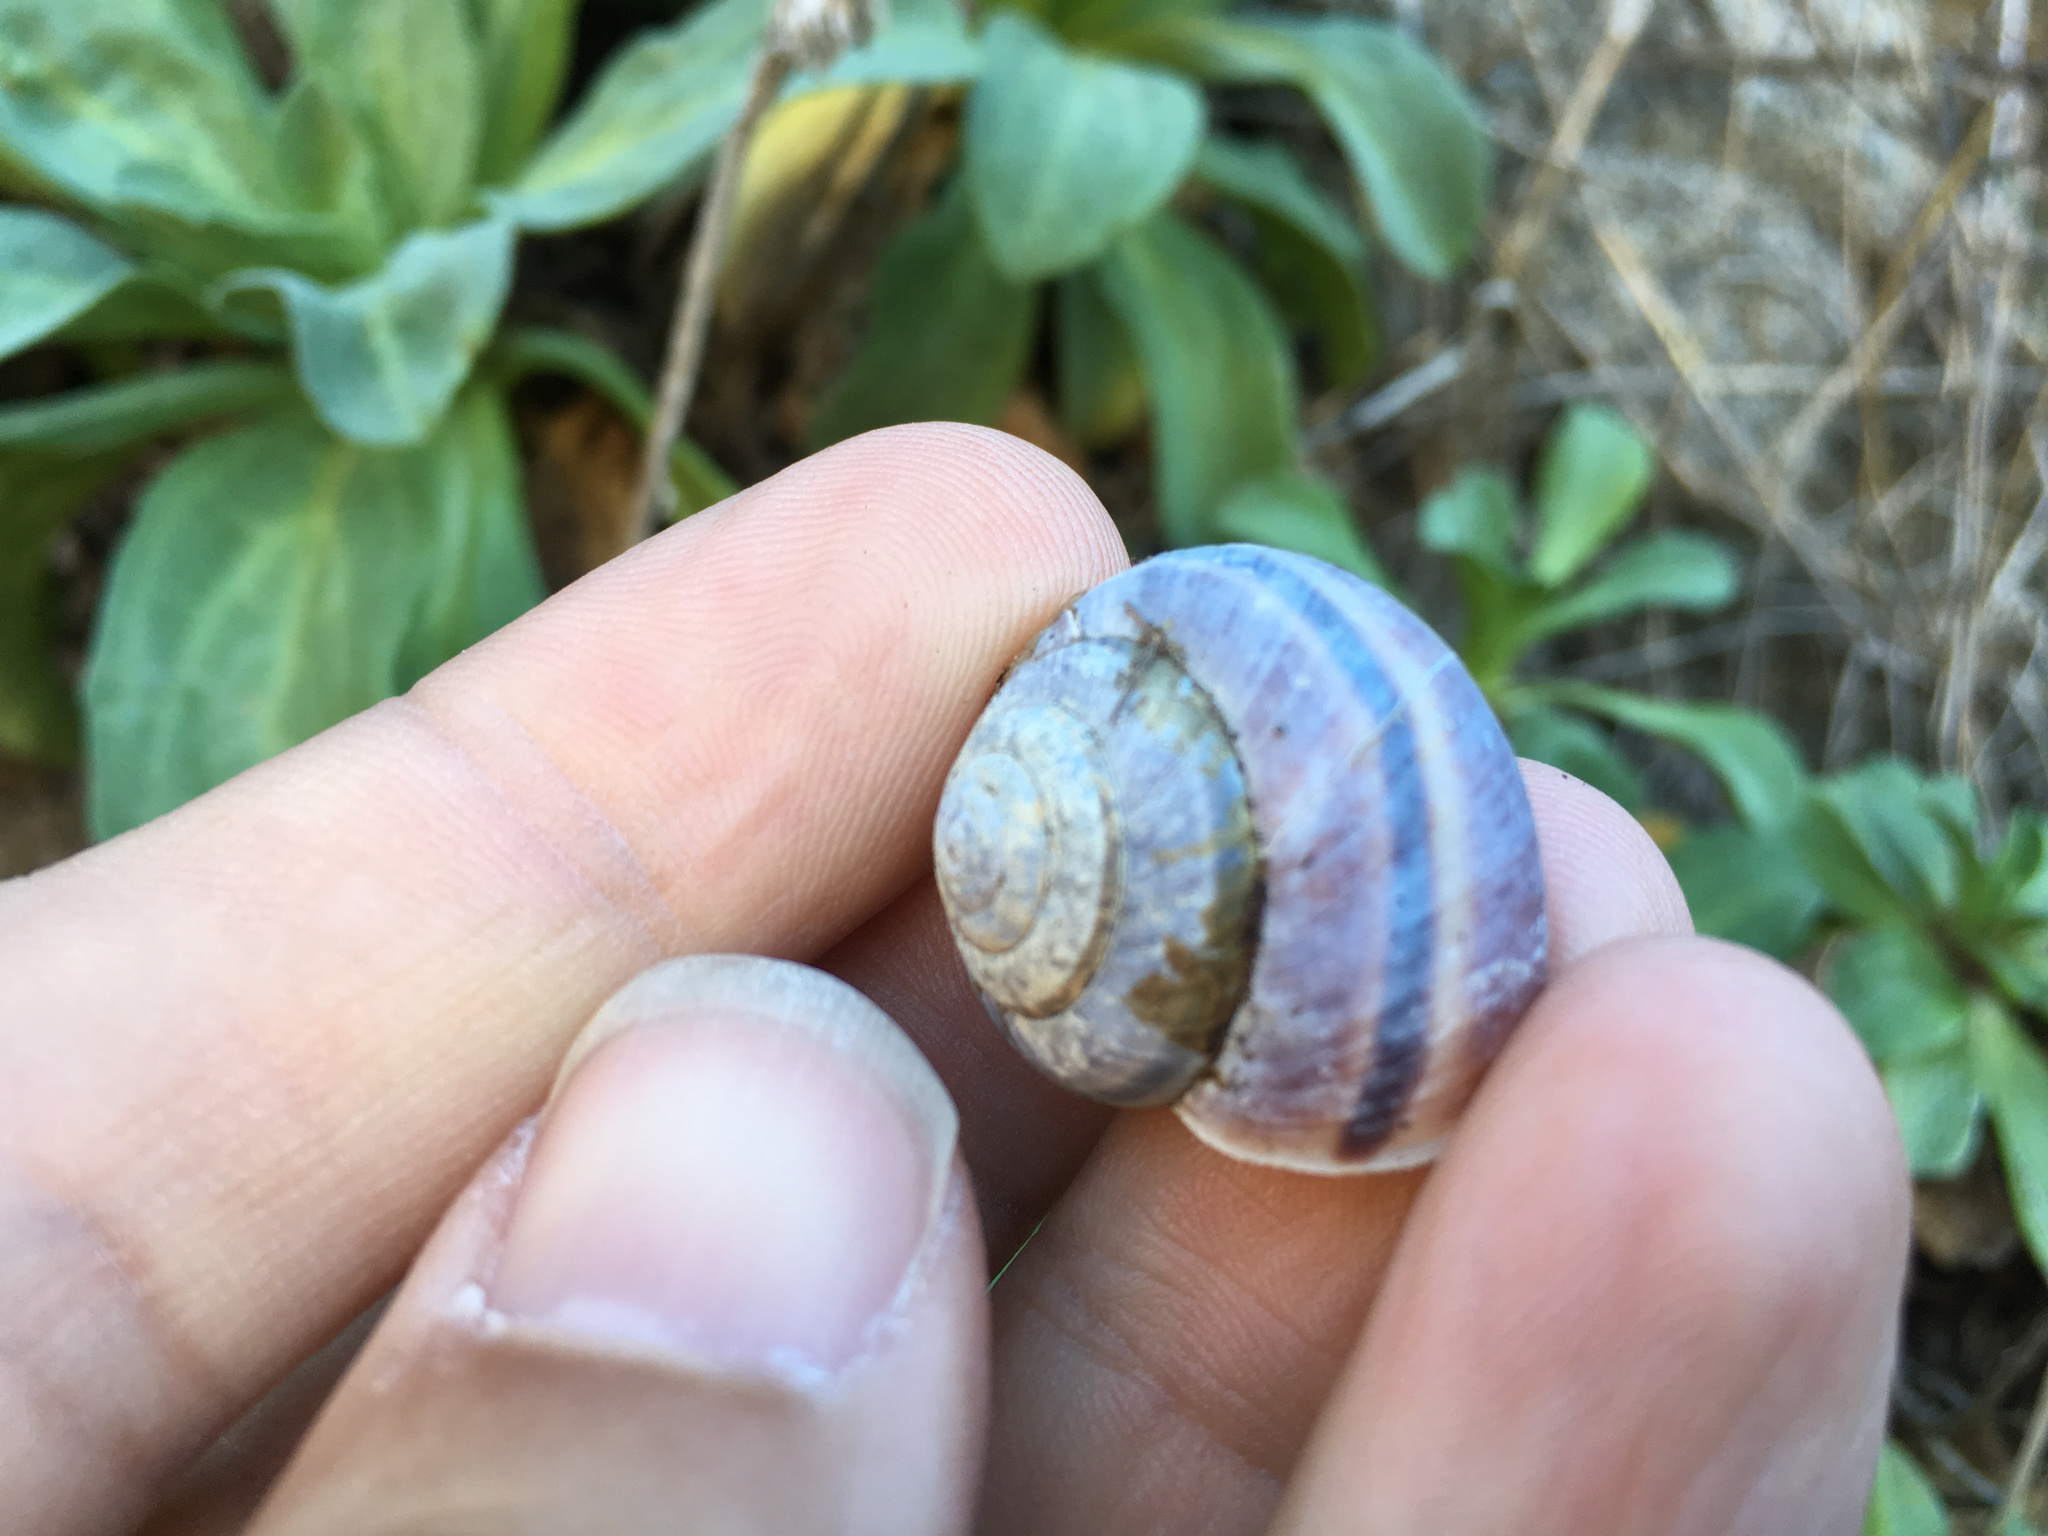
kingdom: Animalia
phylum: Mollusca
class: Gastropoda
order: Stylommatophora
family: Xanthonychidae
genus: Helminthoglypta
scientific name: Helminthoglypta dupetithouarsi
